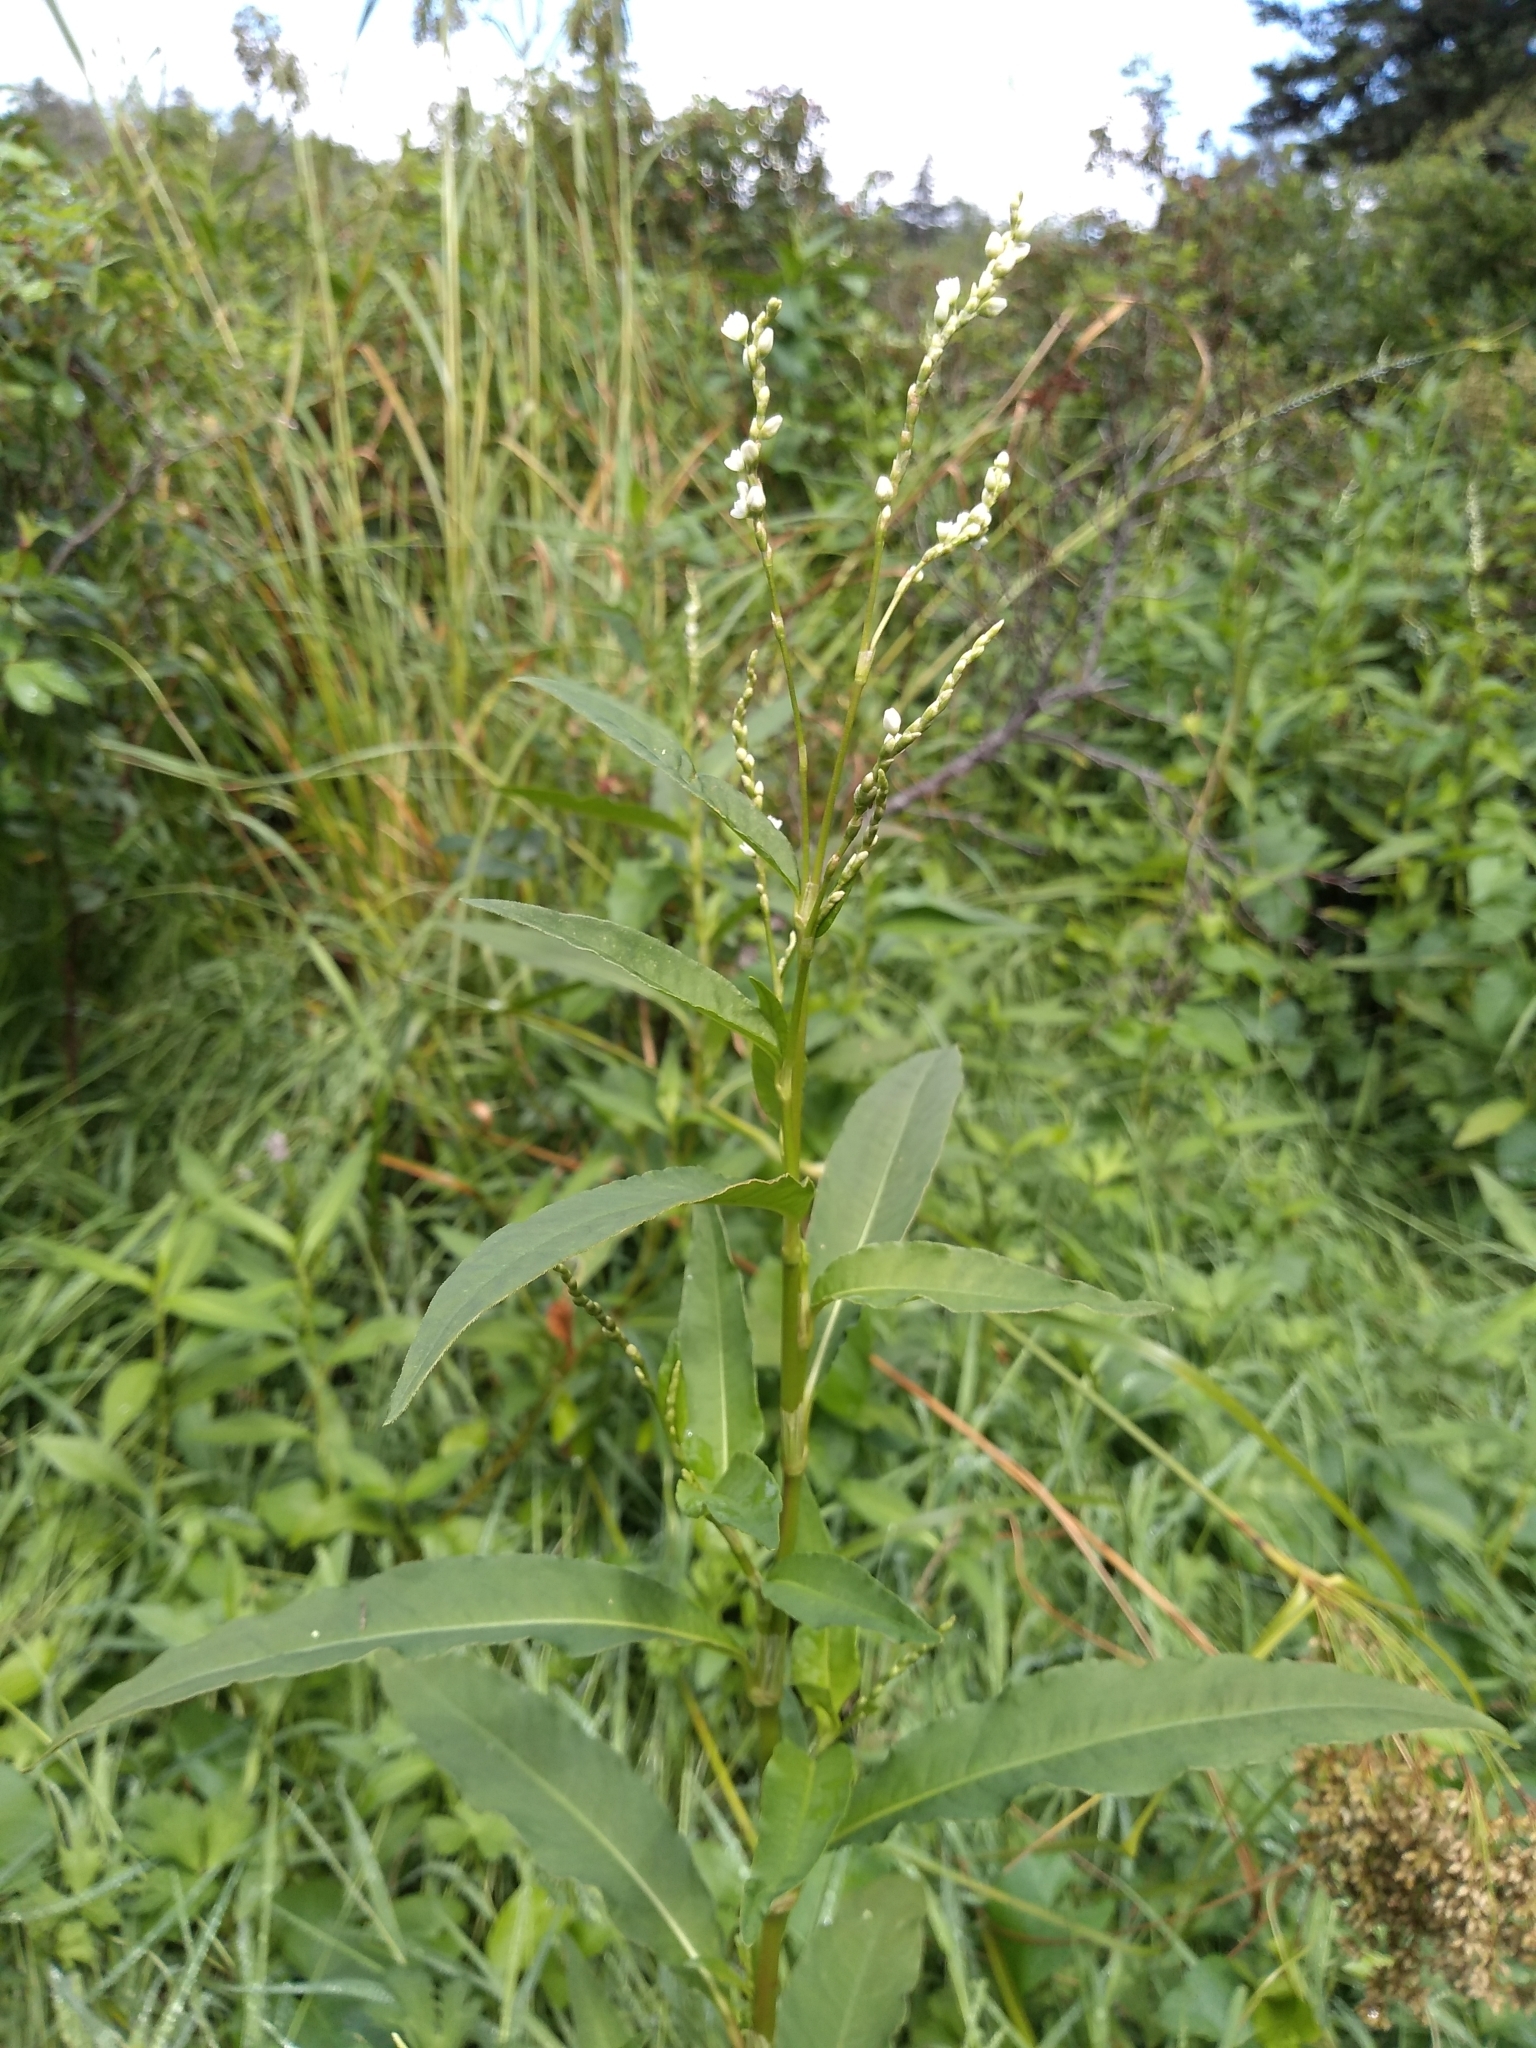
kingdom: Plantae
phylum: Tracheophyta
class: Magnoliopsida
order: Caryophyllales
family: Polygonaceae
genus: Persicaria
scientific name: Persicaria robustior
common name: Stout smartweed
